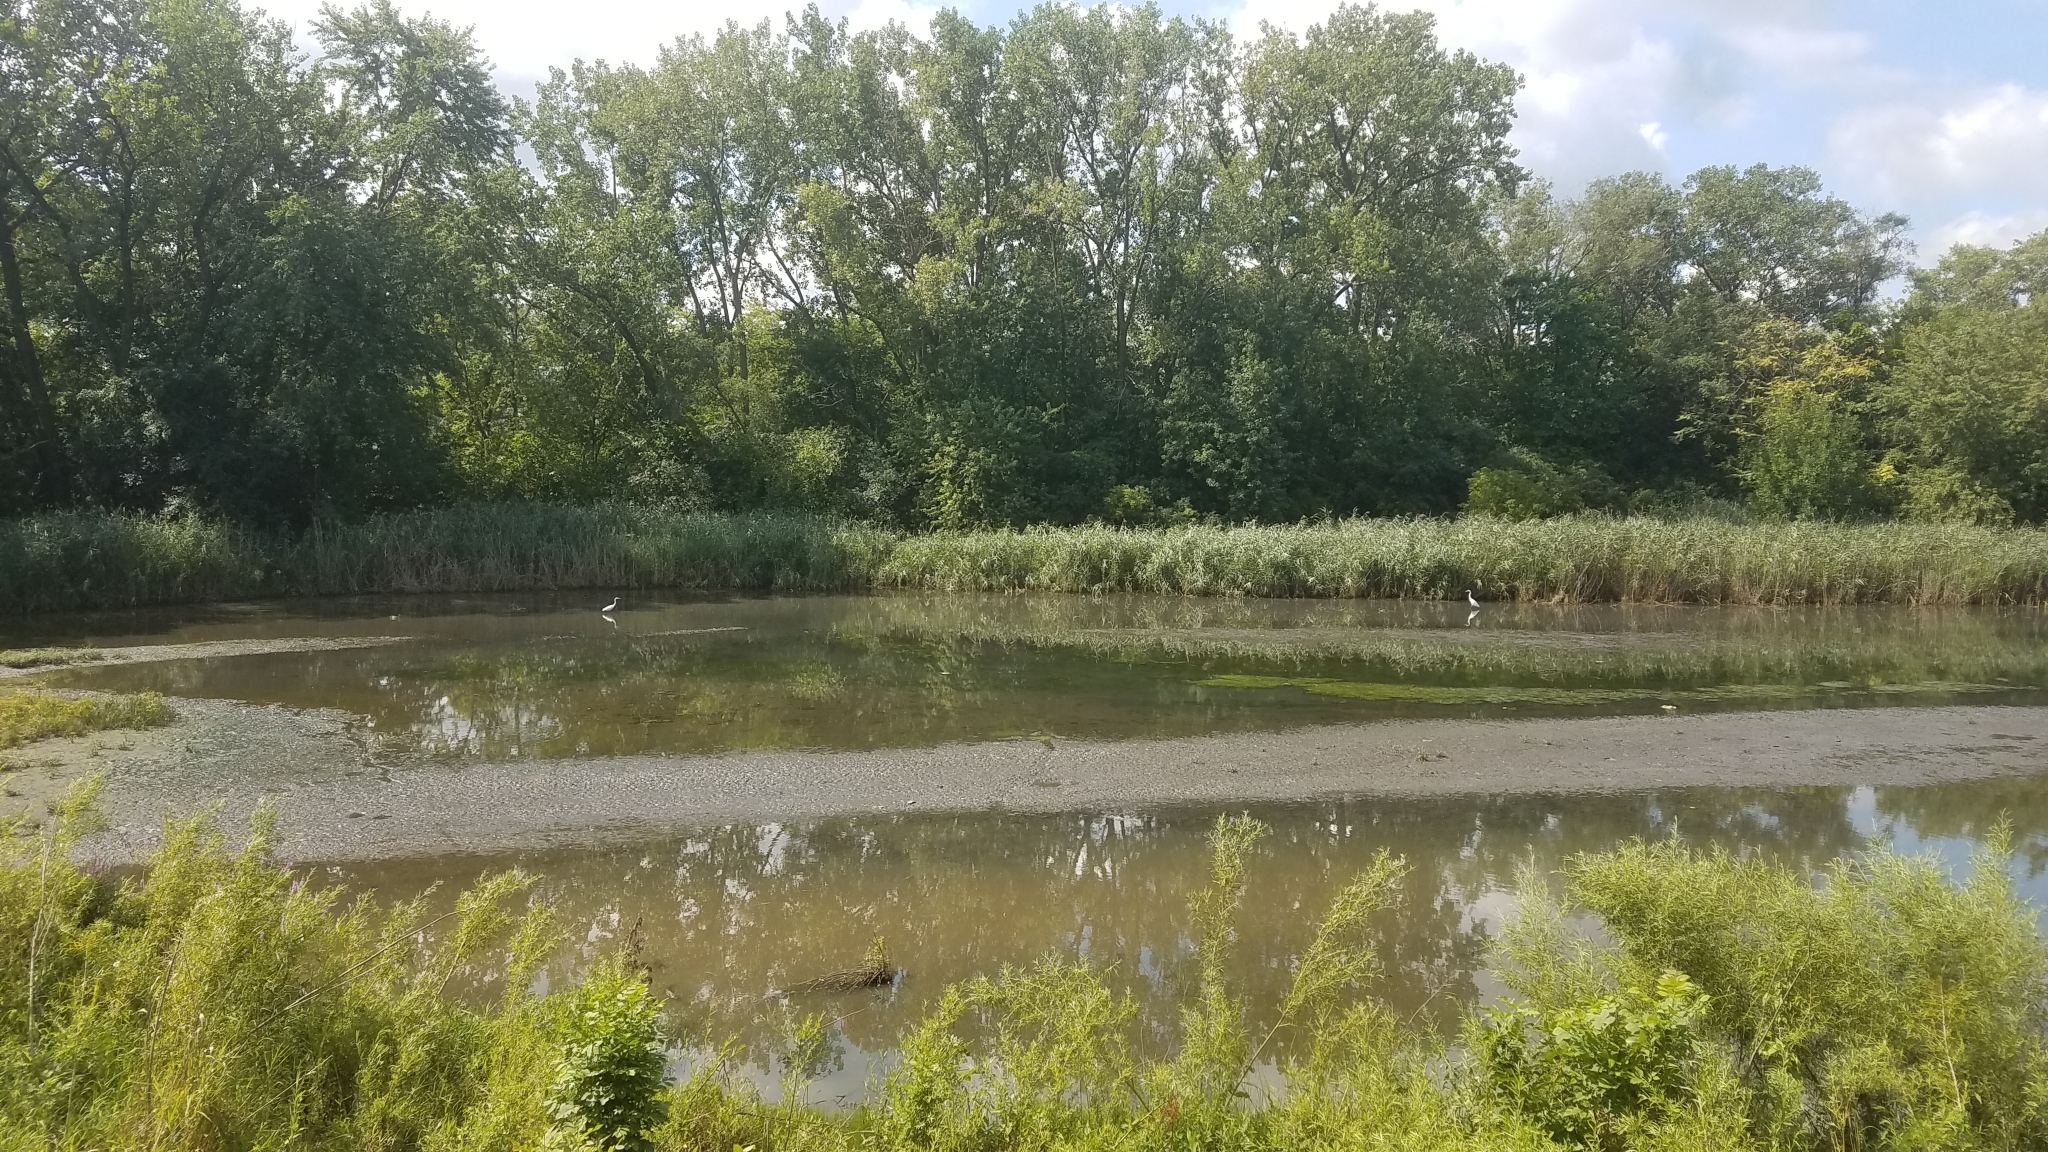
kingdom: Animalia
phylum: Chordata
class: Aves
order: Pelecaniformes
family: Ardeidae
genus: Ardea
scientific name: Ardea alba
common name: Great egret
